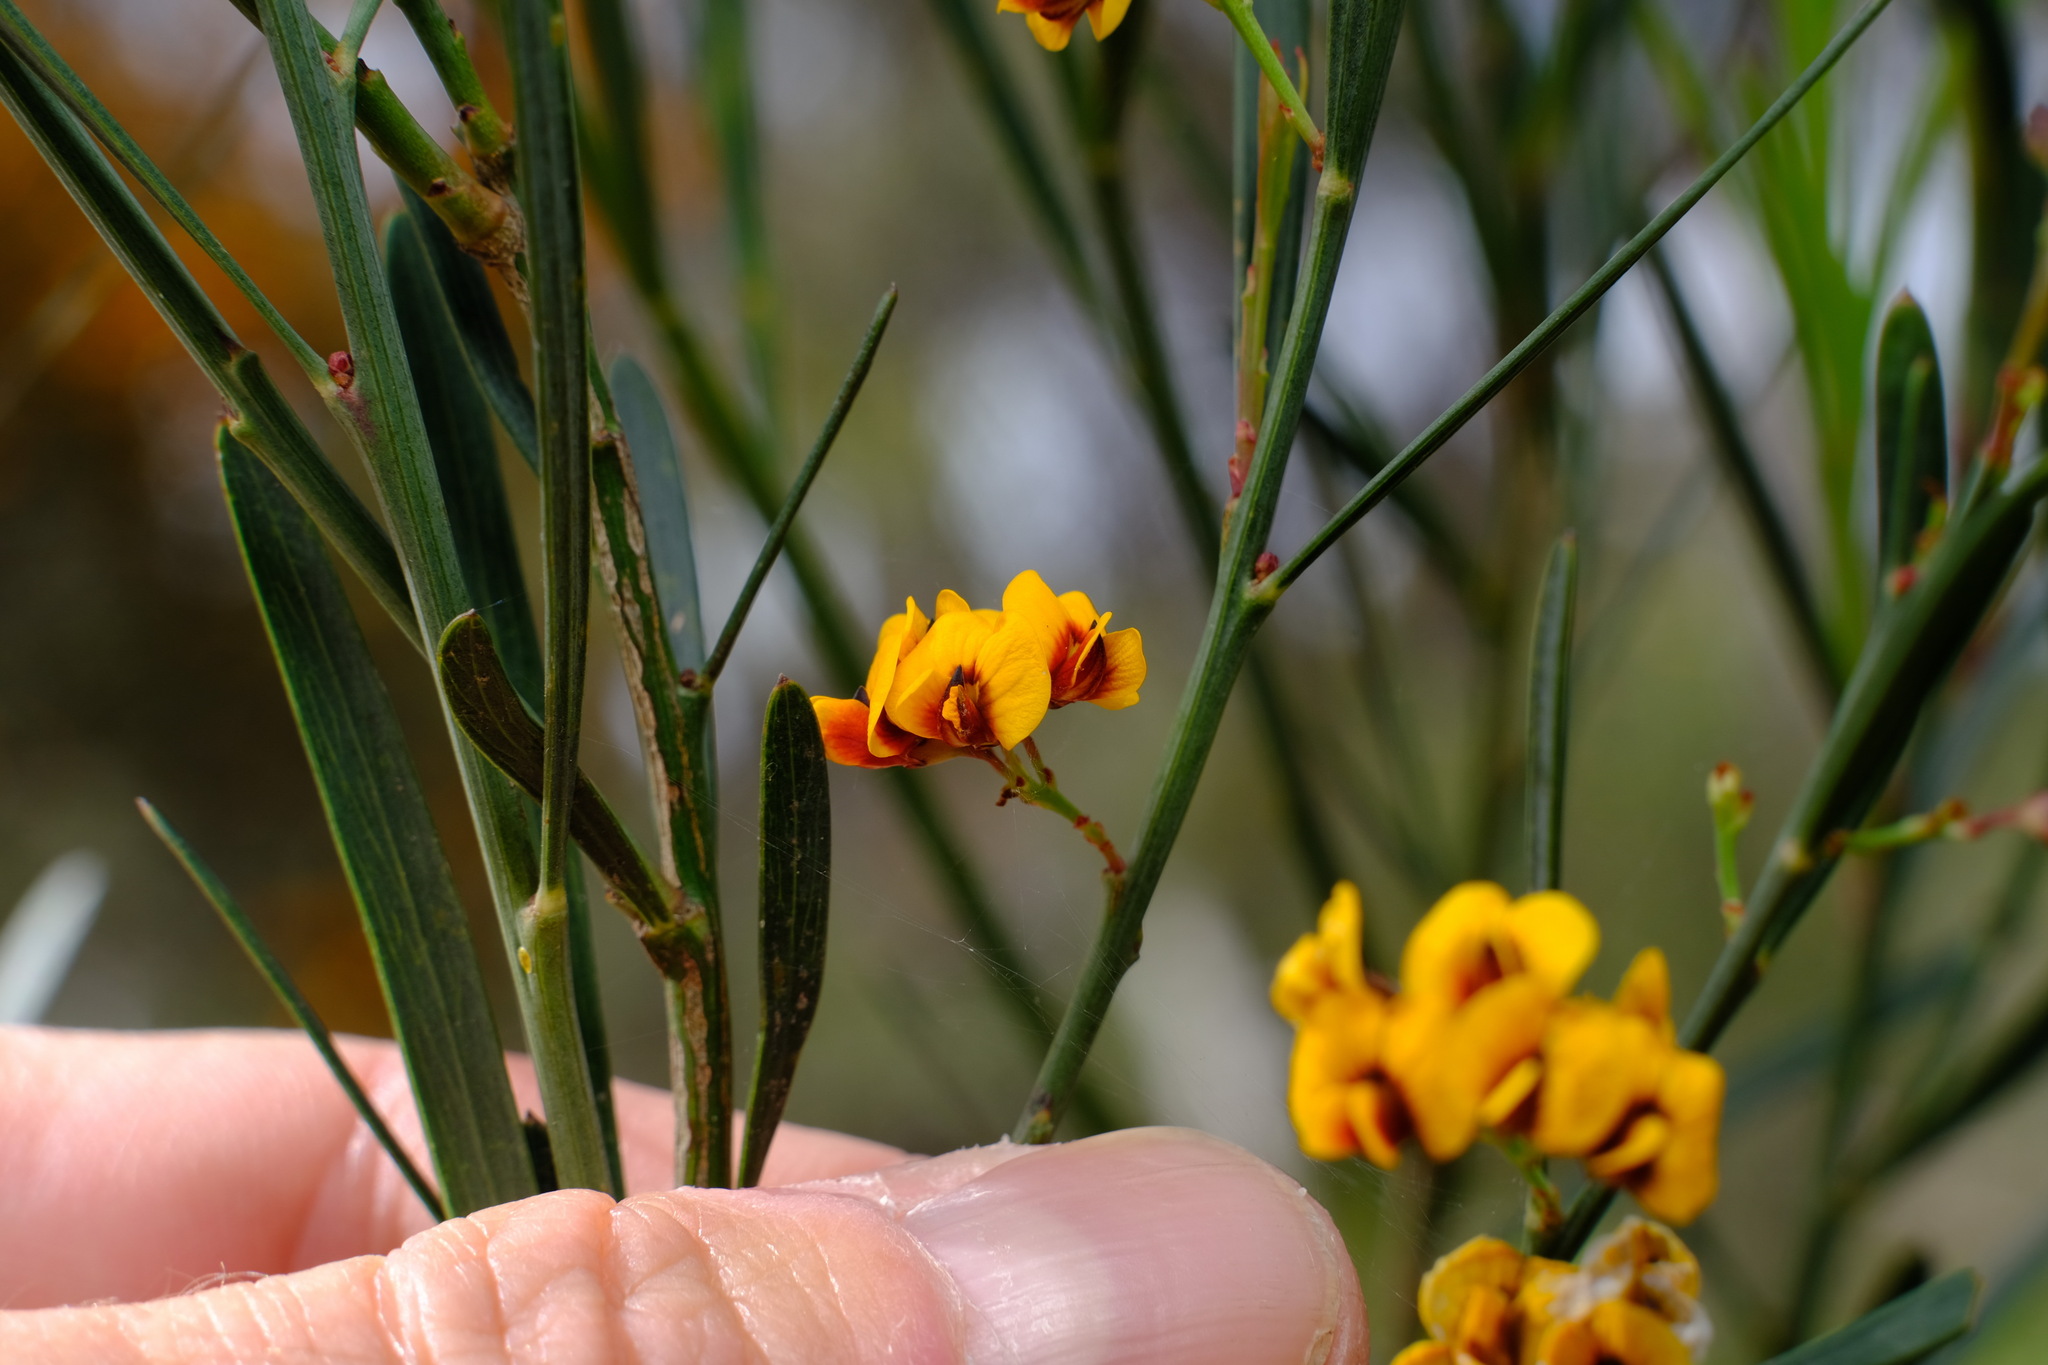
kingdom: Plantae
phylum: Tracheophyta
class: Magnoliopsida
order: Fabales
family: Fabaceae
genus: Daviesia
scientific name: Daviesia leptophylla
